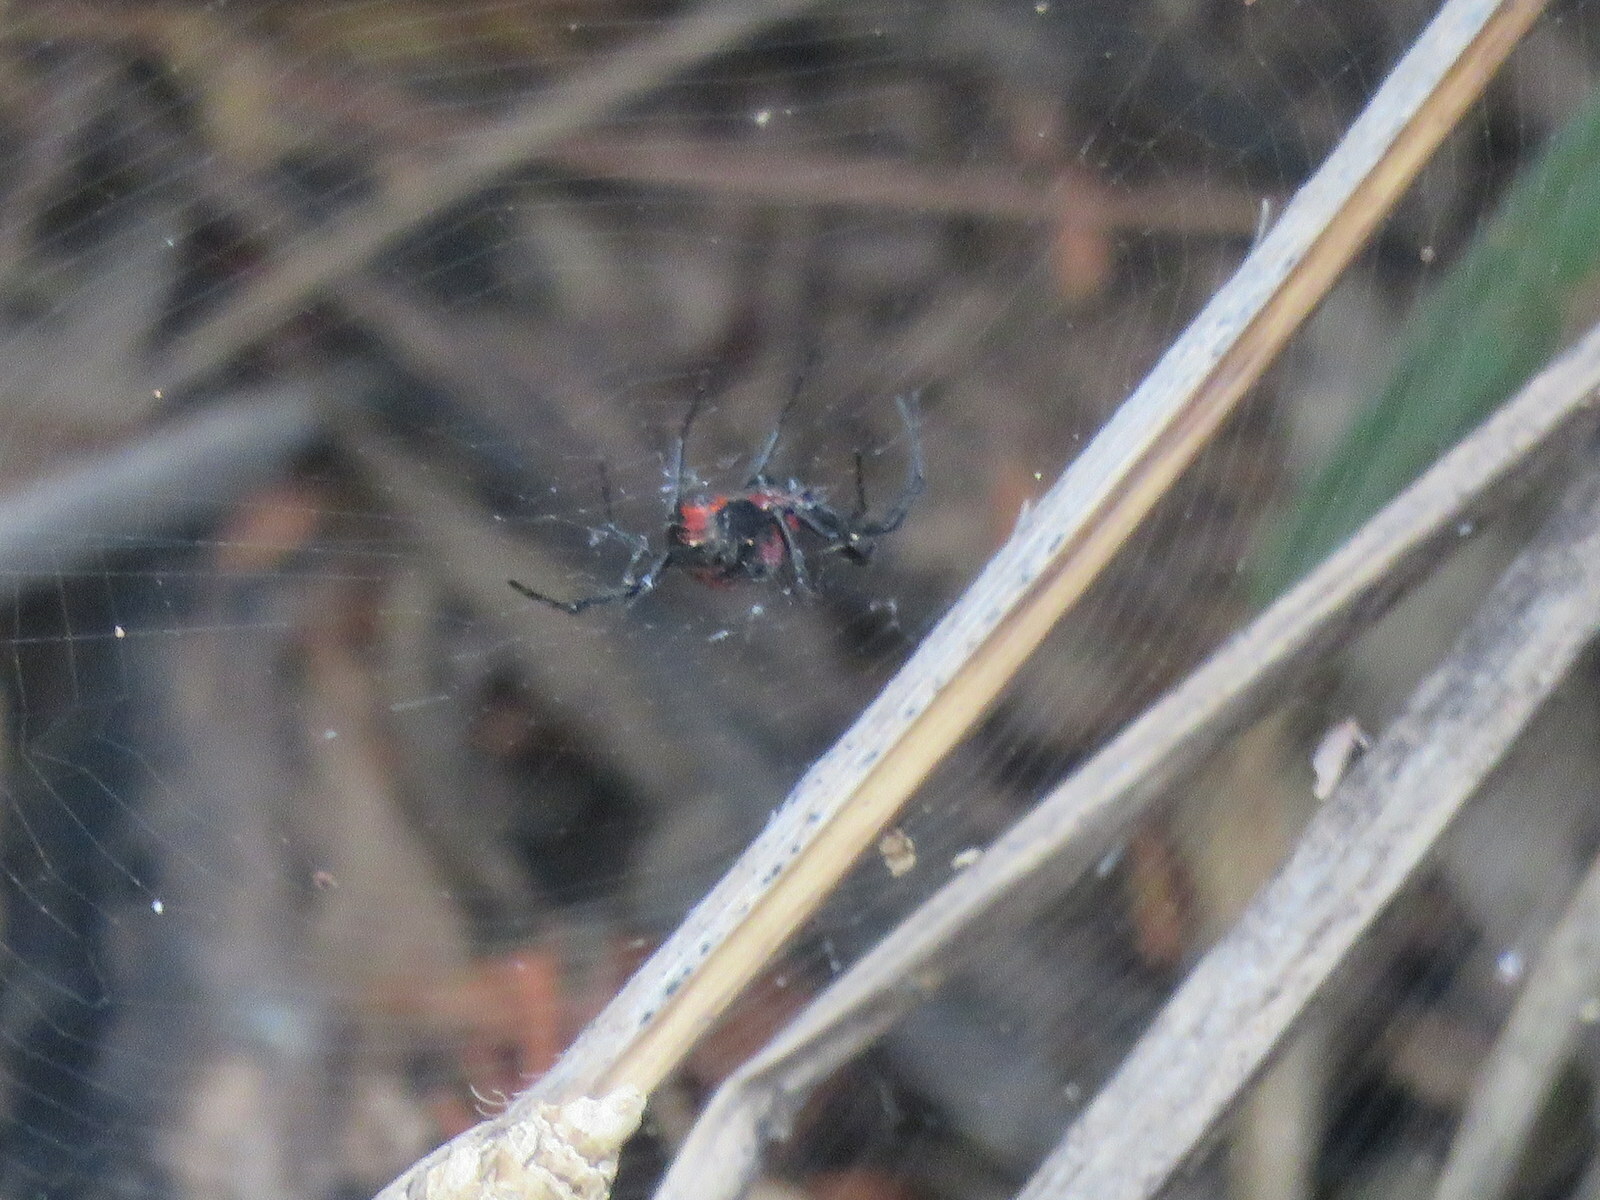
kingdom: Animalia
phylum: Arthropoda
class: Arachnida
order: Araneae
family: Araneidae
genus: Alpaida
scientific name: Alpaida carminea
